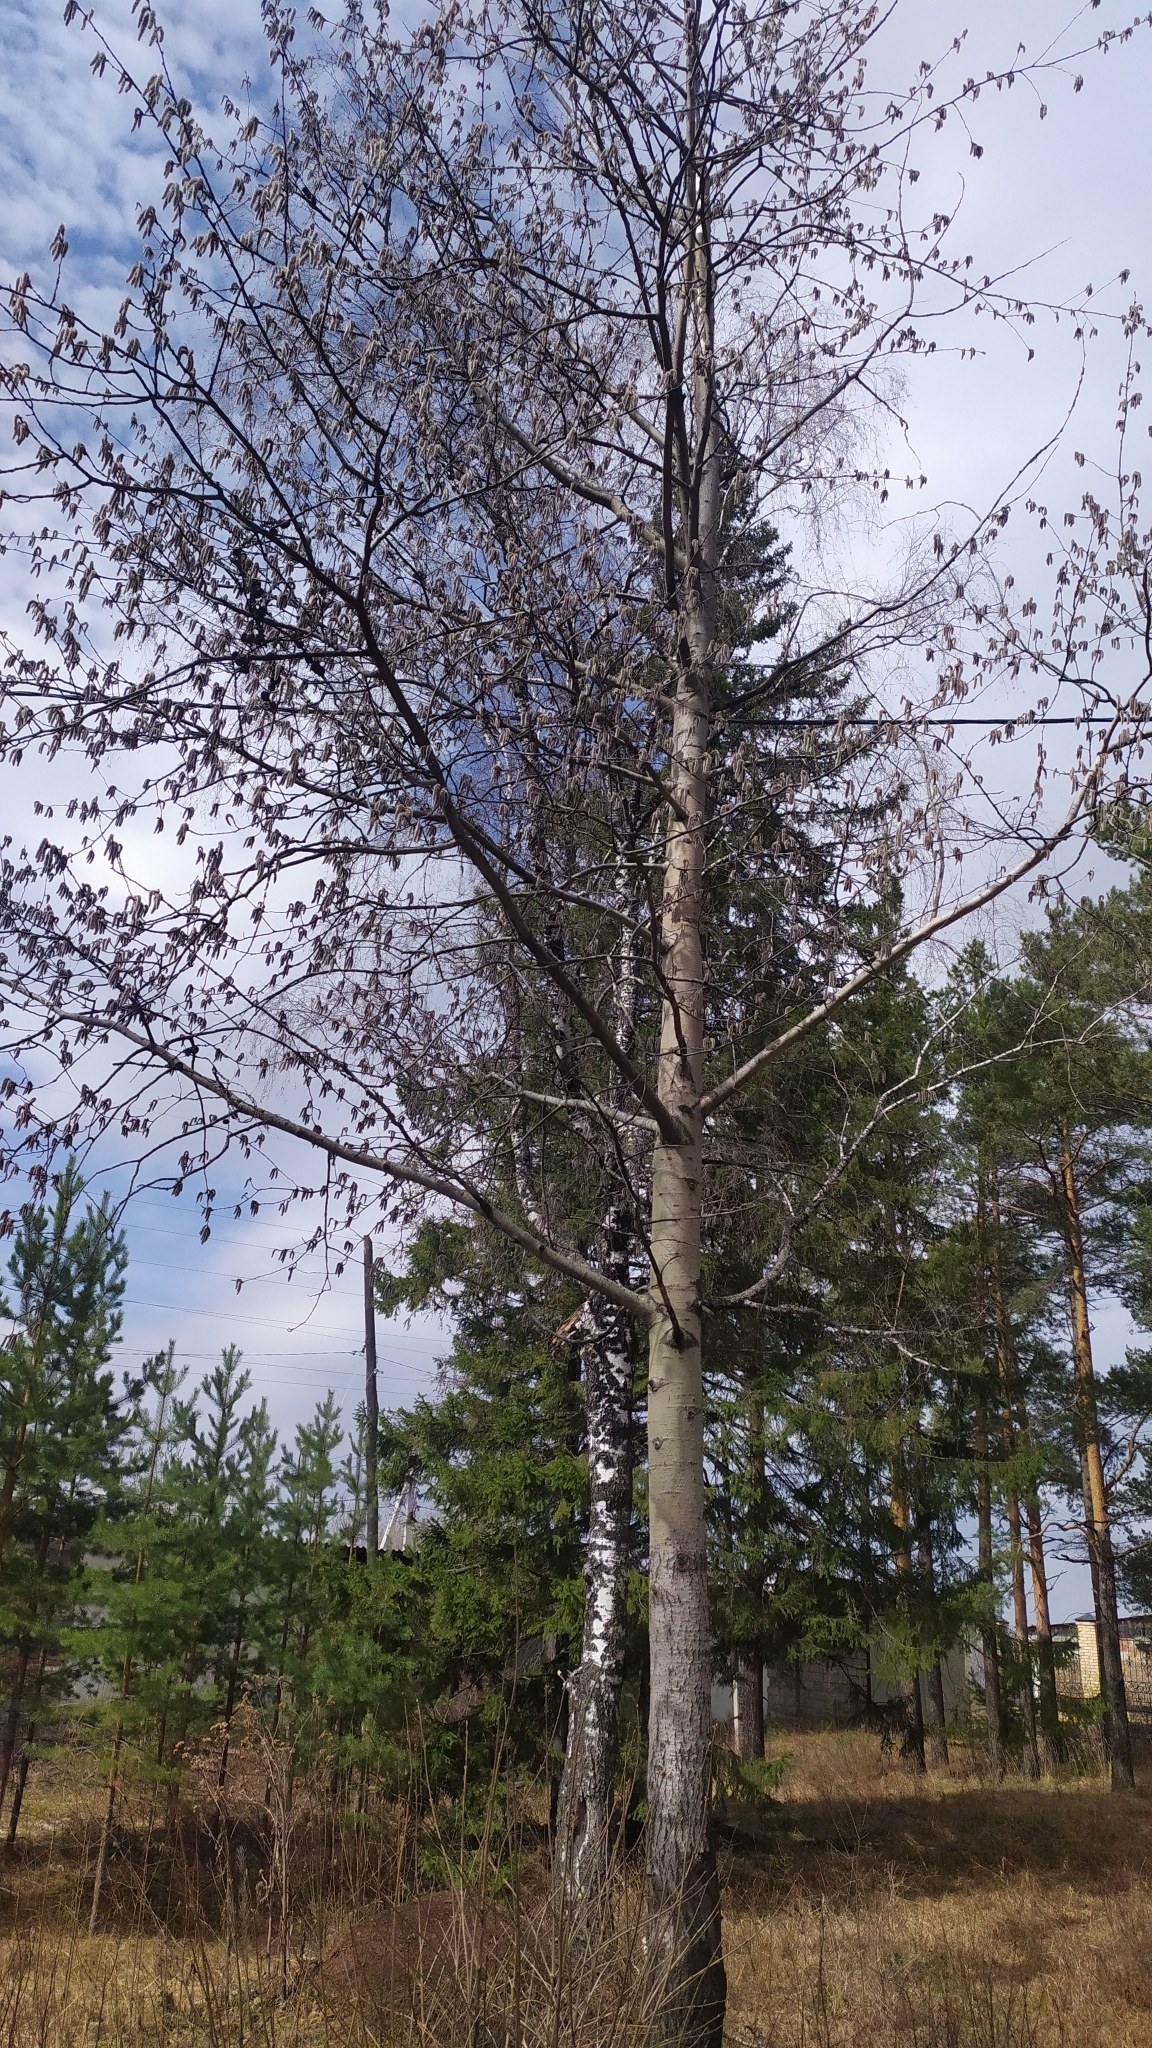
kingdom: Plantae
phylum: Tracheophyta
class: Magnoliopsida
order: Malpighiales
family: Salicaceae
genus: Populus
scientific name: Populus tremula
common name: European aspen
